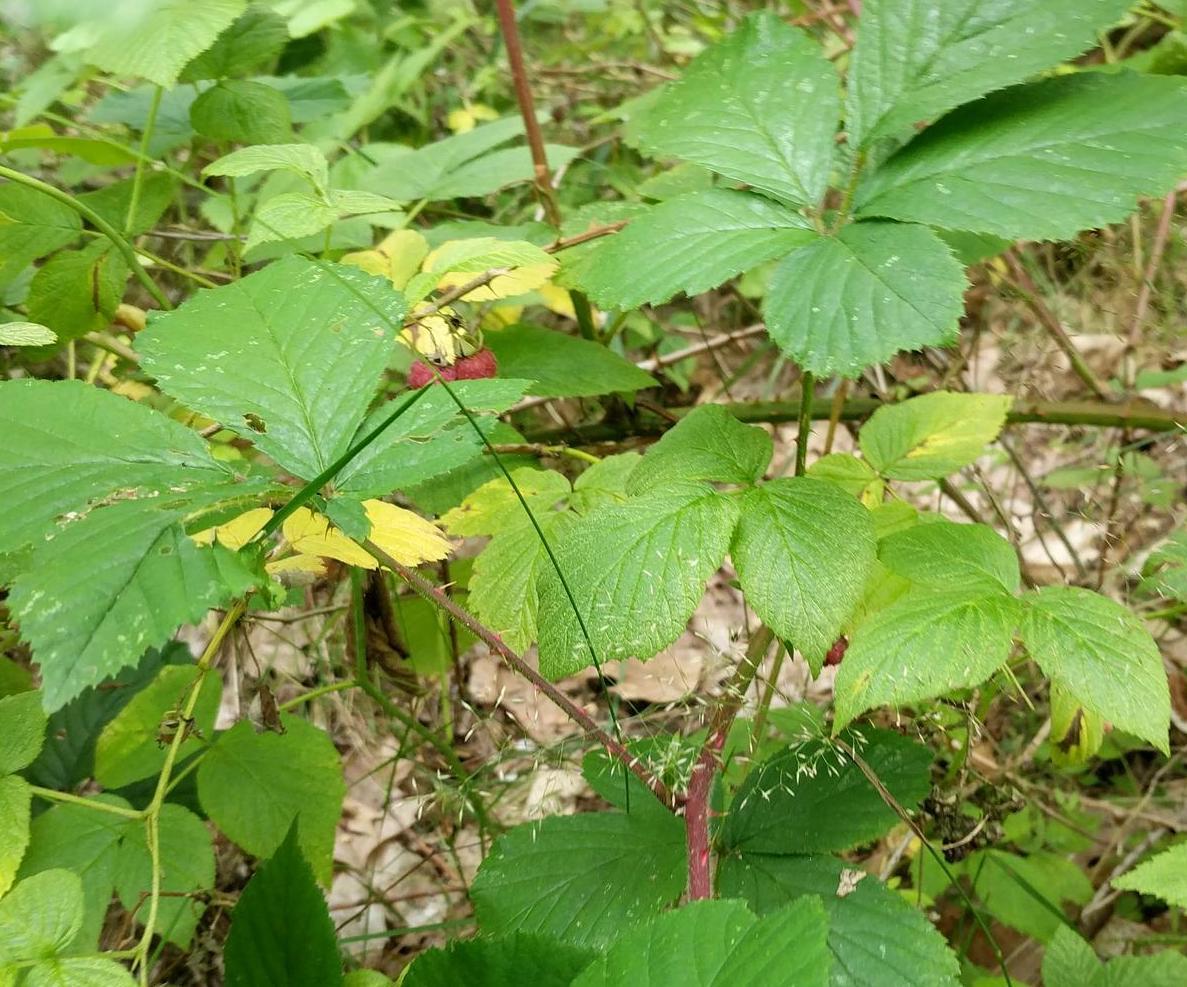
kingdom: Plantae
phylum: Tracheophyta
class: Magnoliopsida
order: Rosales
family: Rosaceae
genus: Rubus
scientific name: Rubus idaeus
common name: Raspberry
